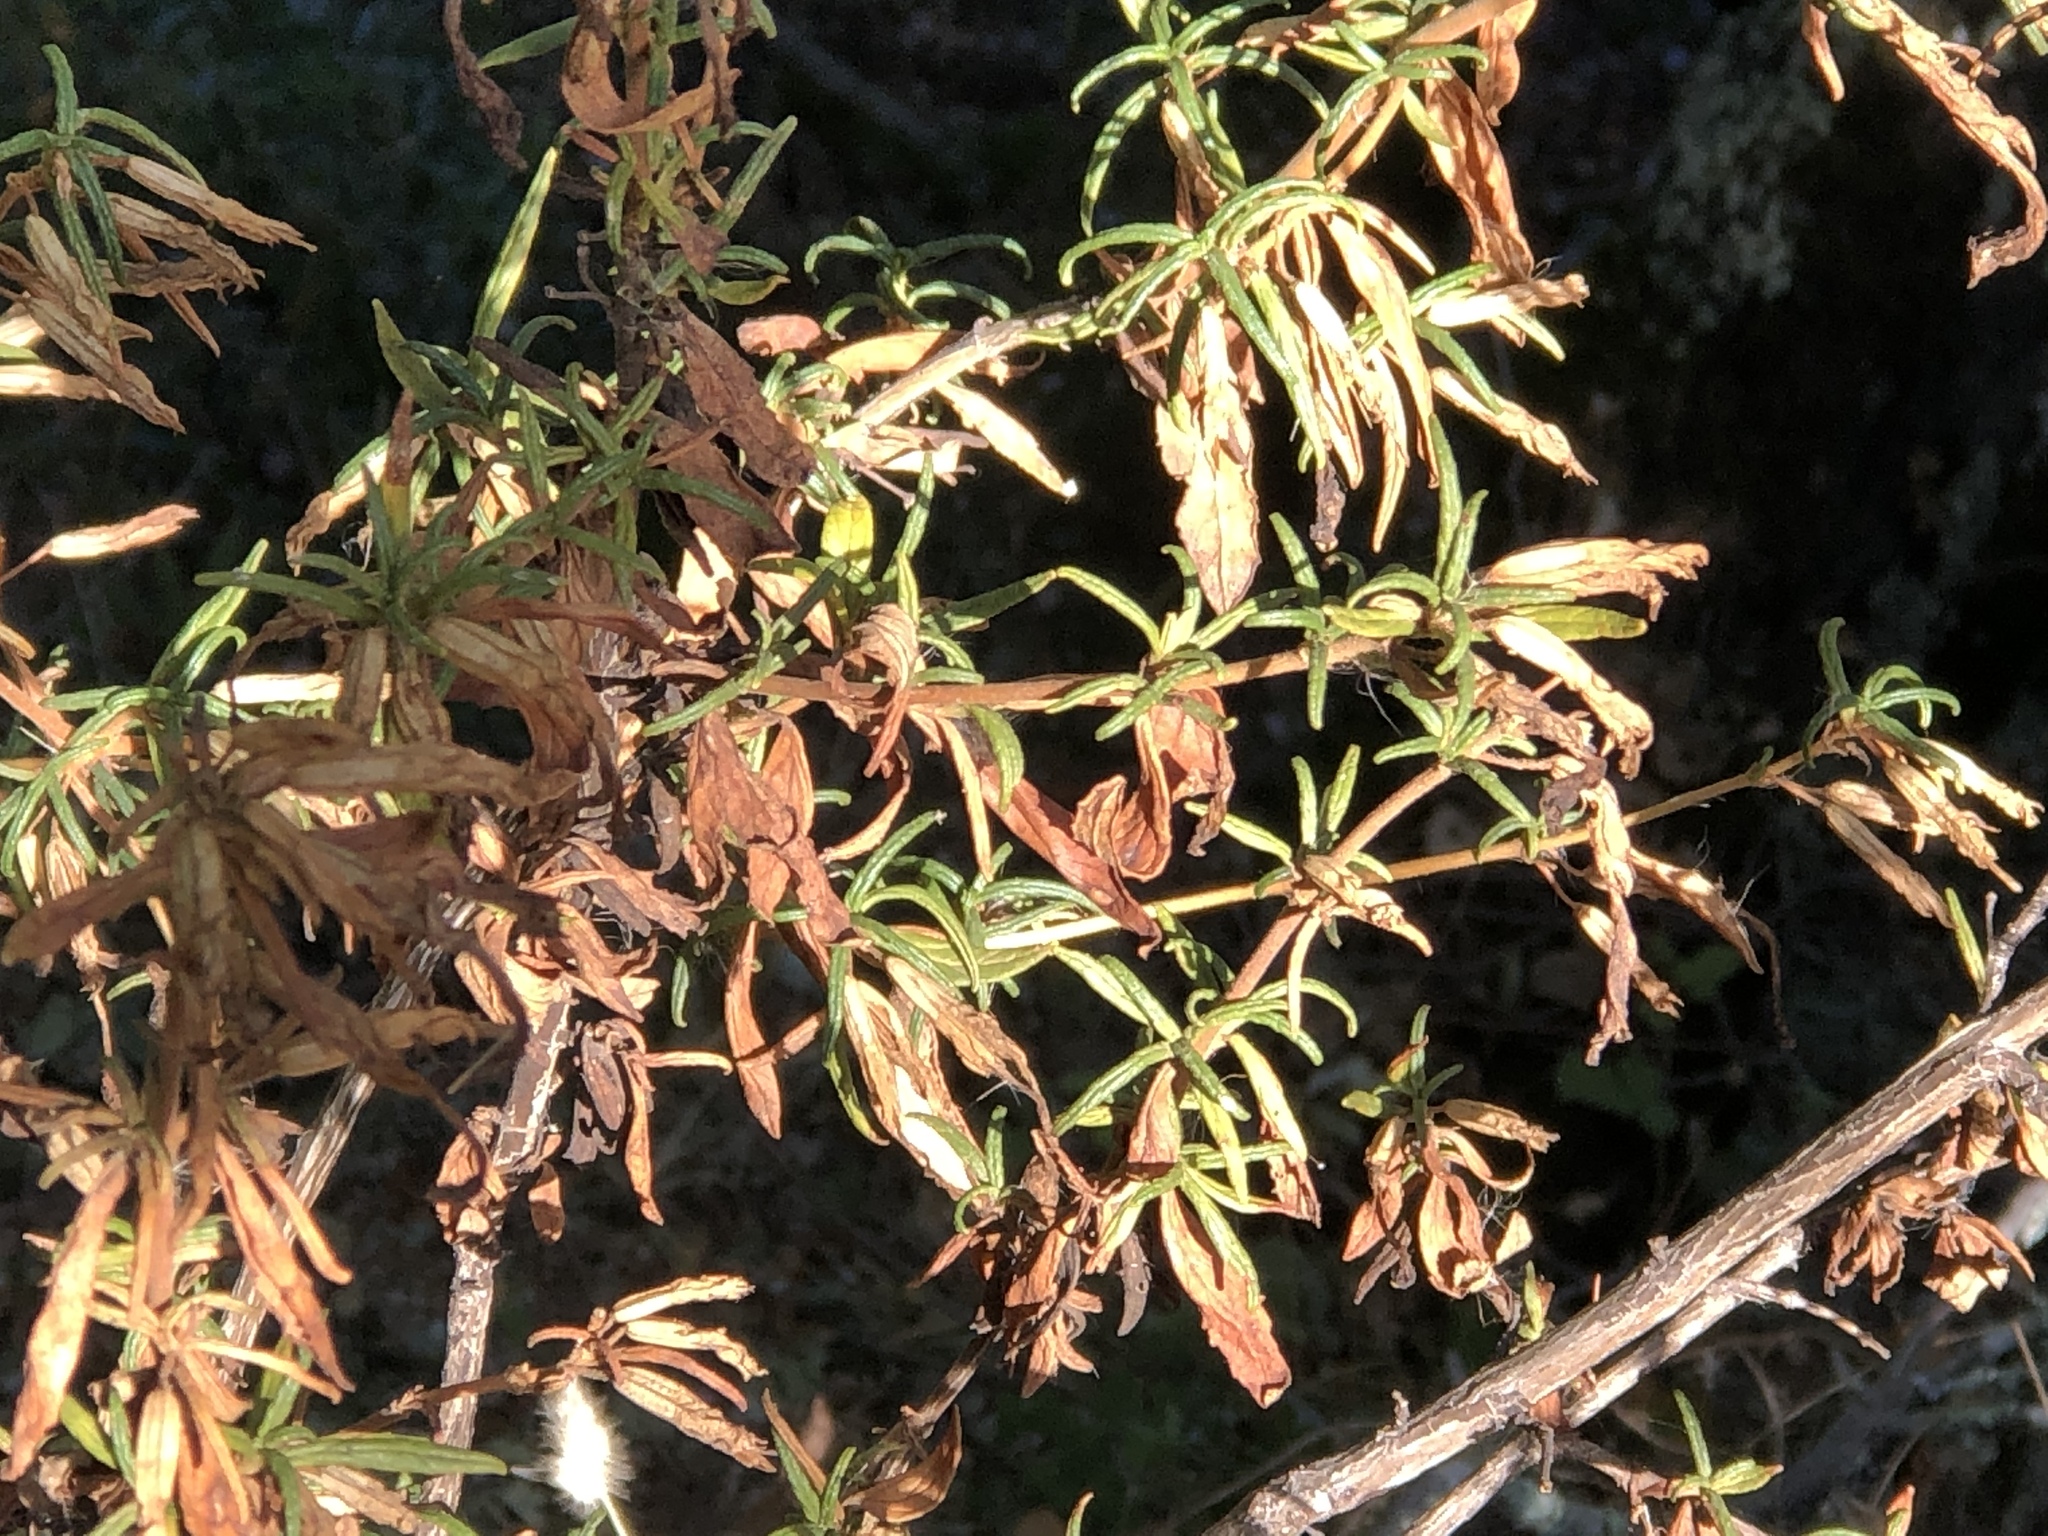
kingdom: Plantae
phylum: Tracheophyta
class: Magnoliopsida
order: Lamiales
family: Phrymaceae
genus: Diplacus
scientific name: Diplacus aurantiacus
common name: Bush monkey-flower
